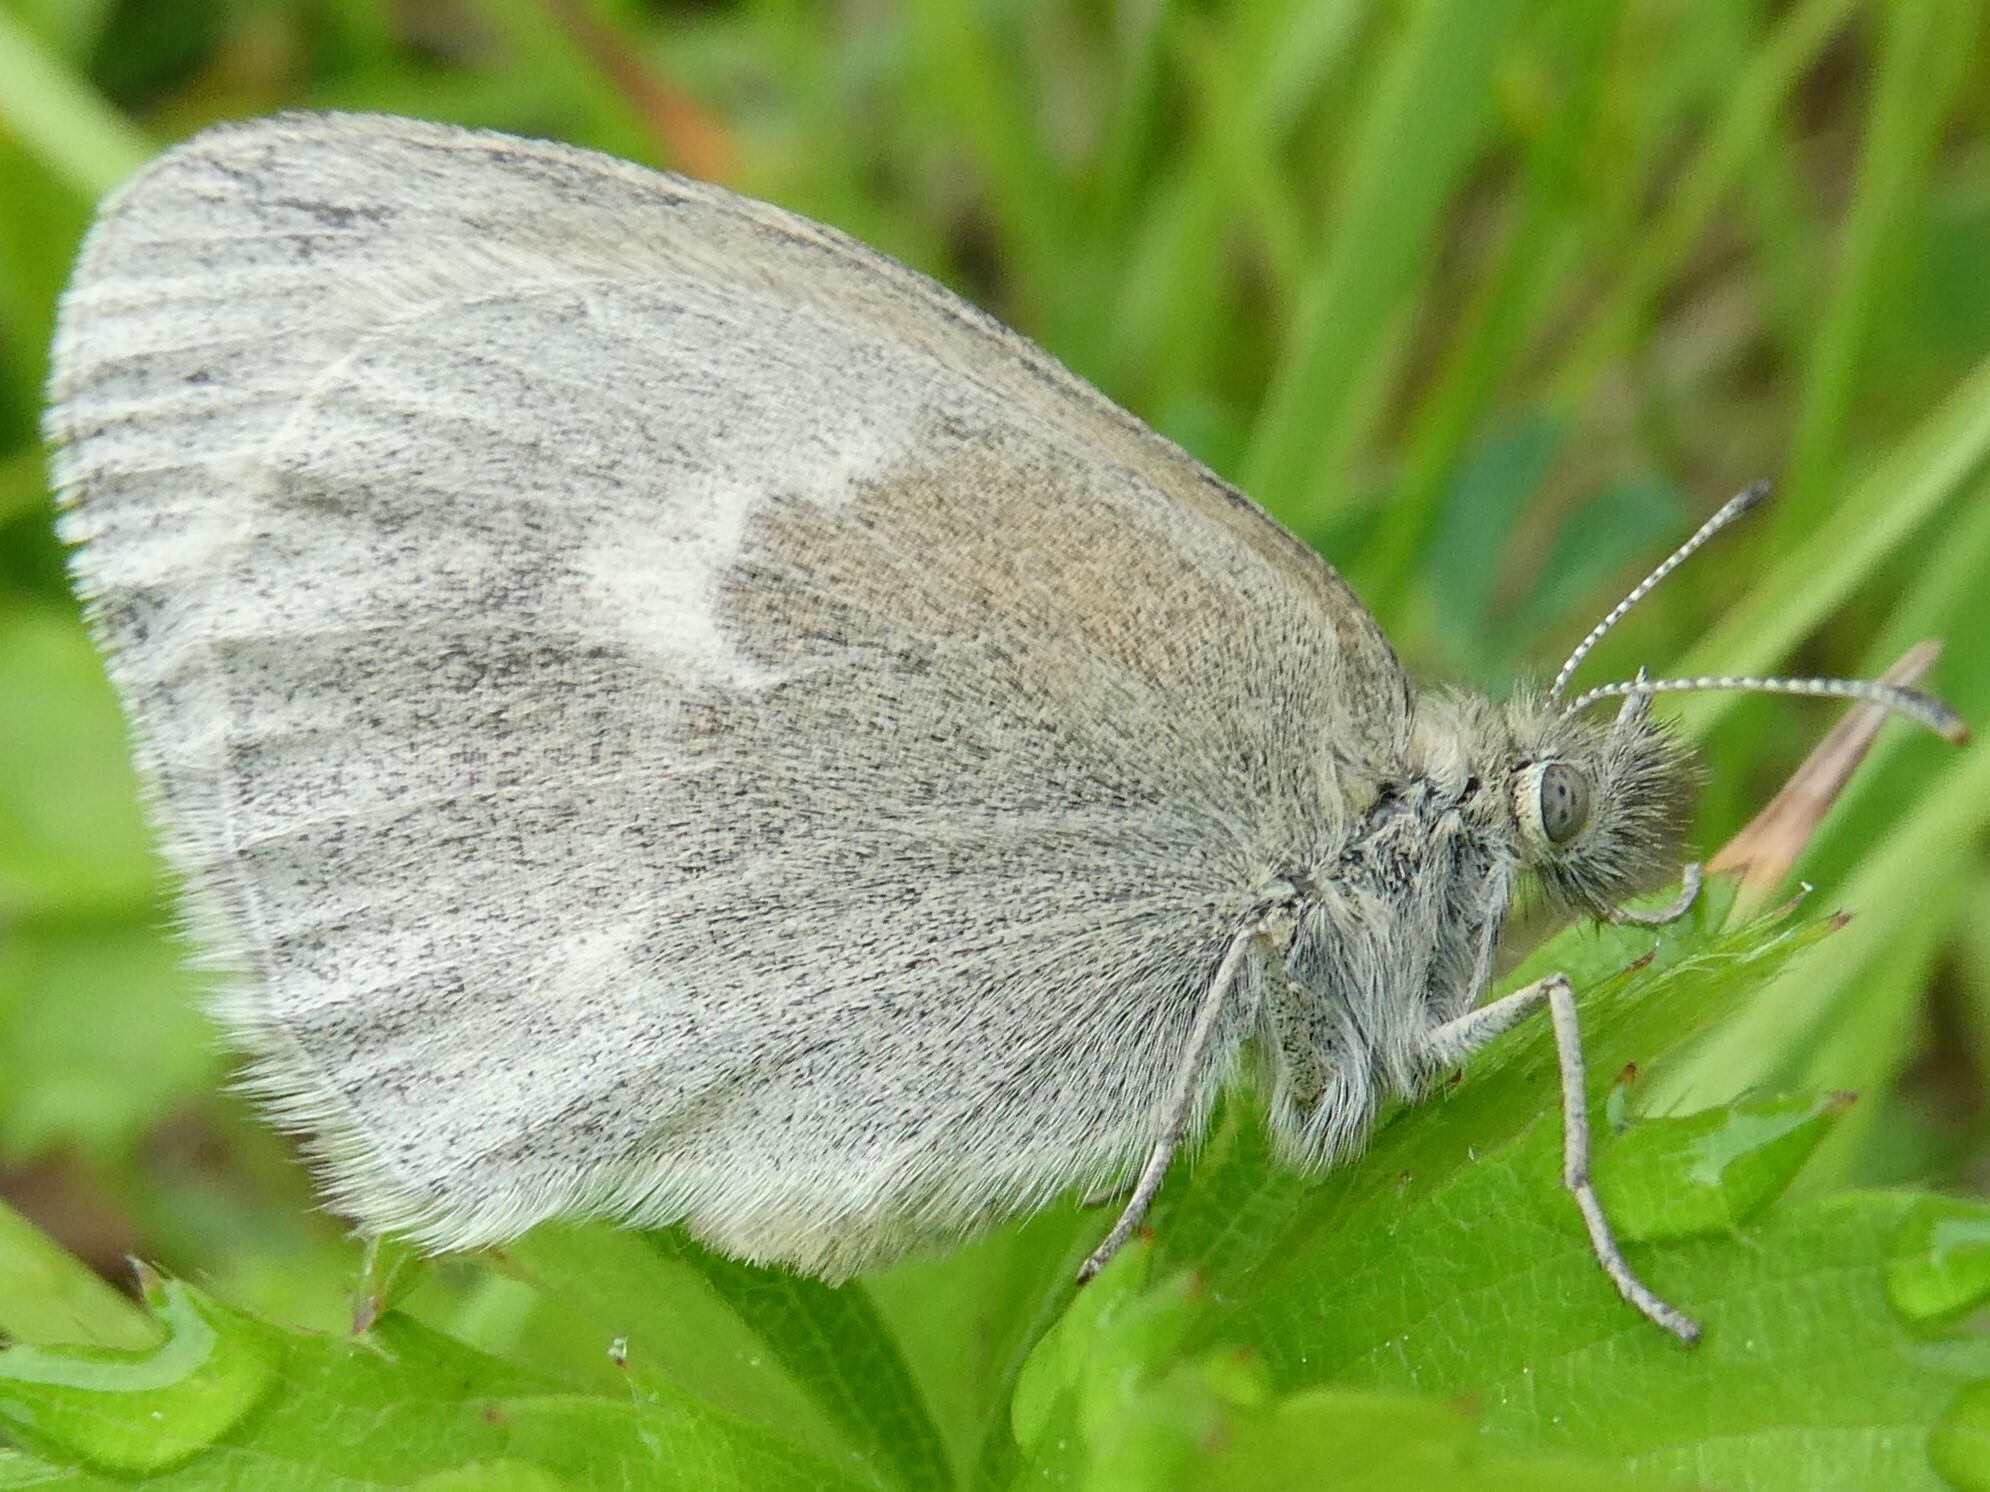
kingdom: Animalia
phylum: Arthropoda
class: Insecta
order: Lepidoptera
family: Nymphalidae
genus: Coenonympha
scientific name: Coenonympha california
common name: Common ringlet
